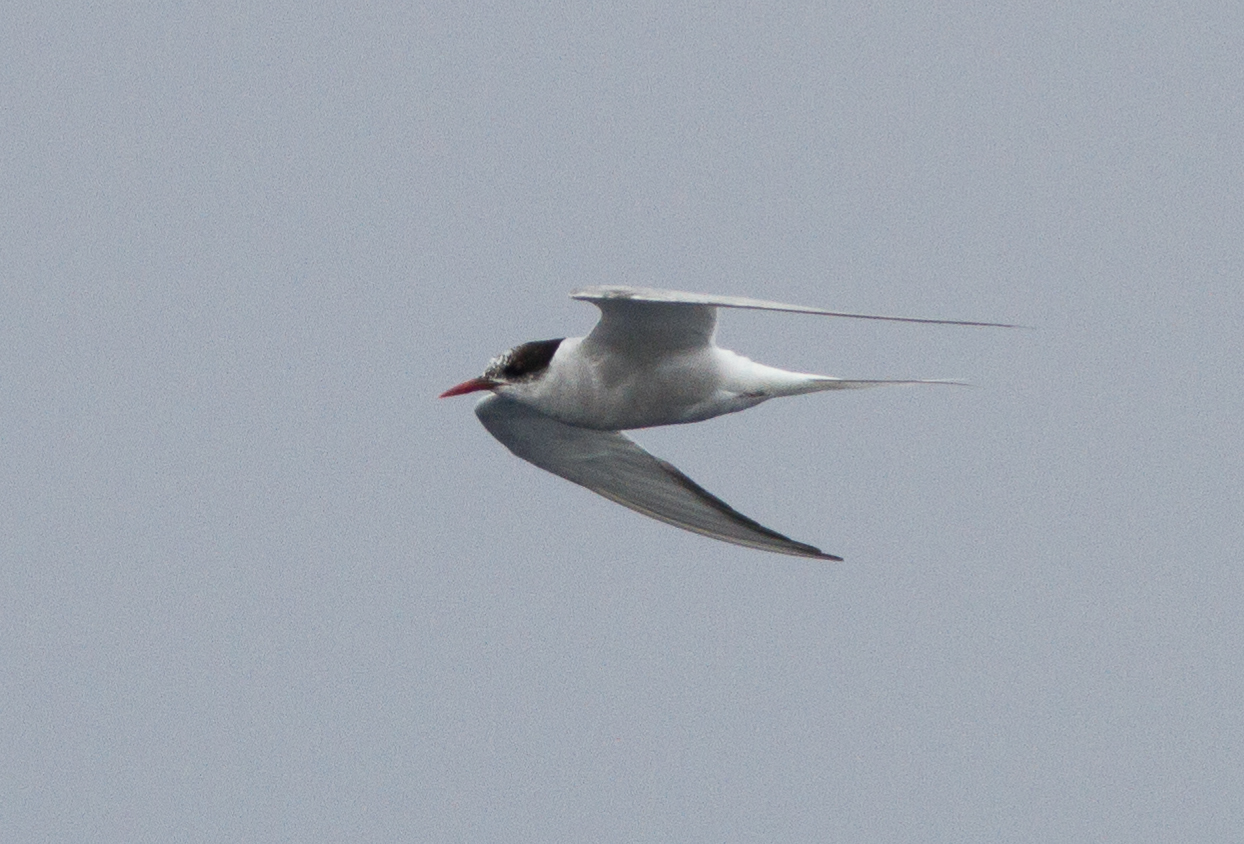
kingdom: Animalia
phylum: Chordata
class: Aves
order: Charadriiformes
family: Laridae
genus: Sterna
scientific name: Sterna paradisaea
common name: Arctic tern
